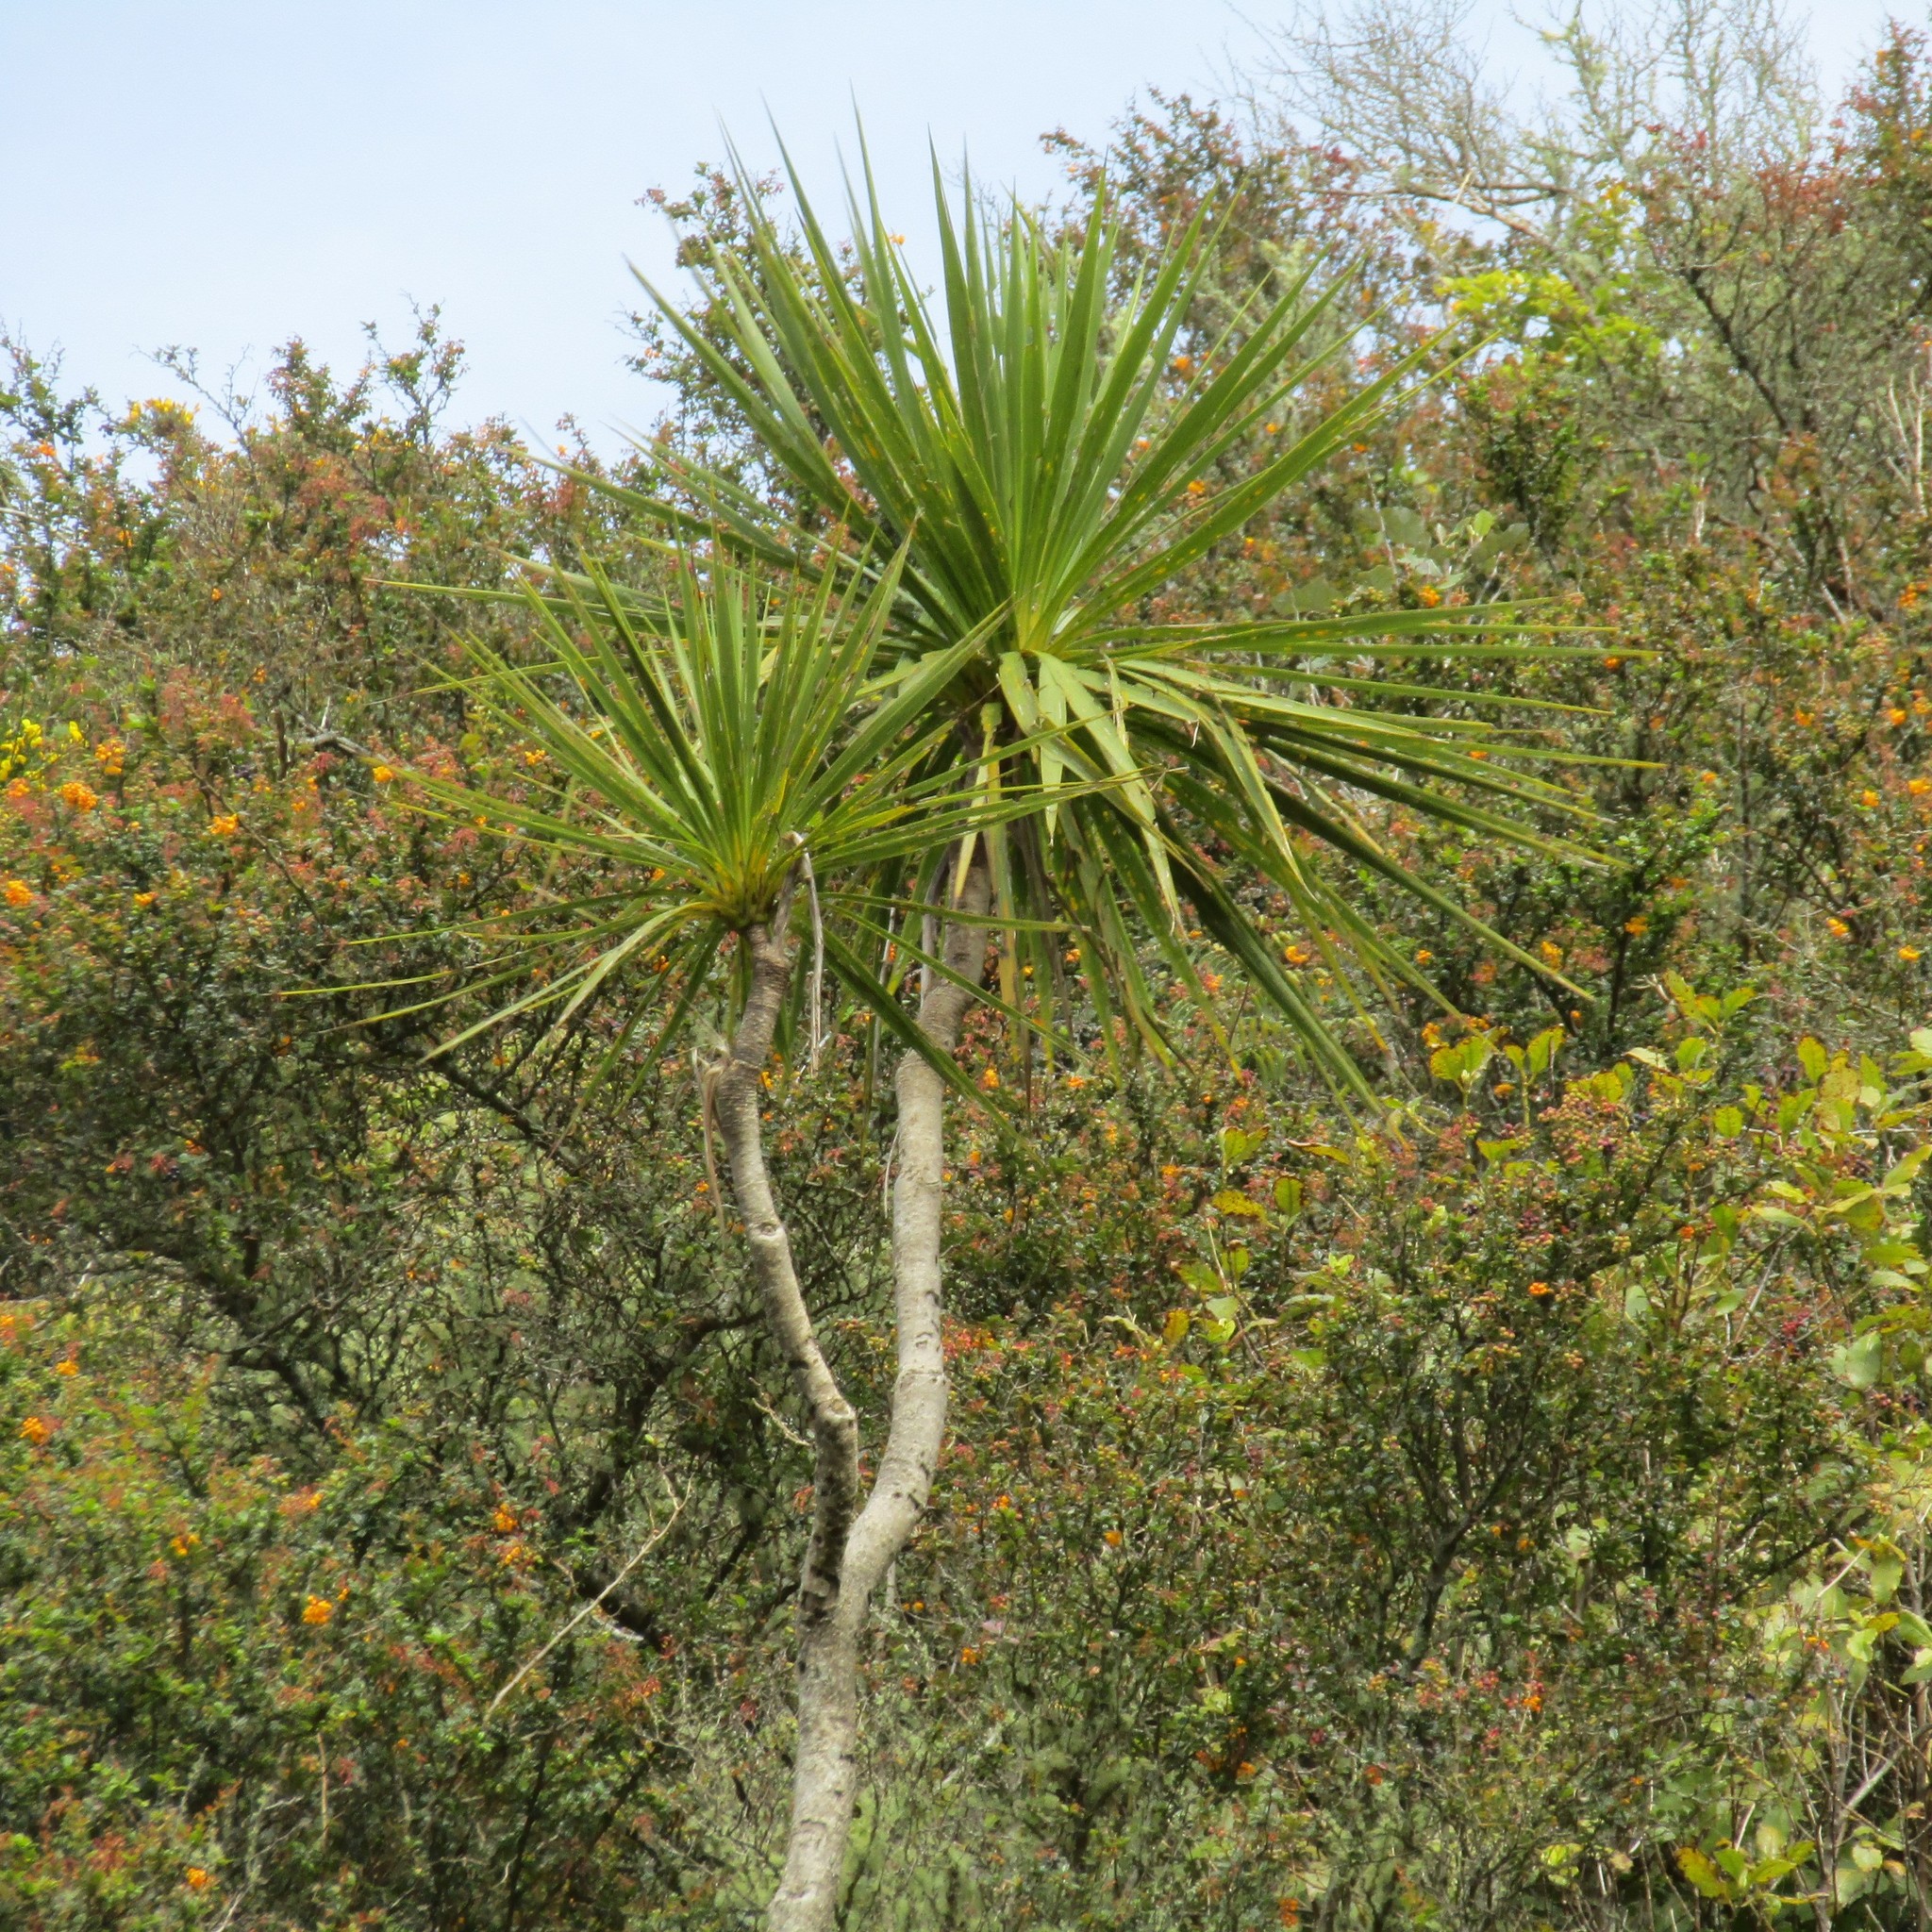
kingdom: Plantae
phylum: Tracheophyta
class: Liliopsida
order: Asparagales
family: Asparagaceae
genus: Cordyline
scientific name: Cordyline australis
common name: Cabbage-palm
